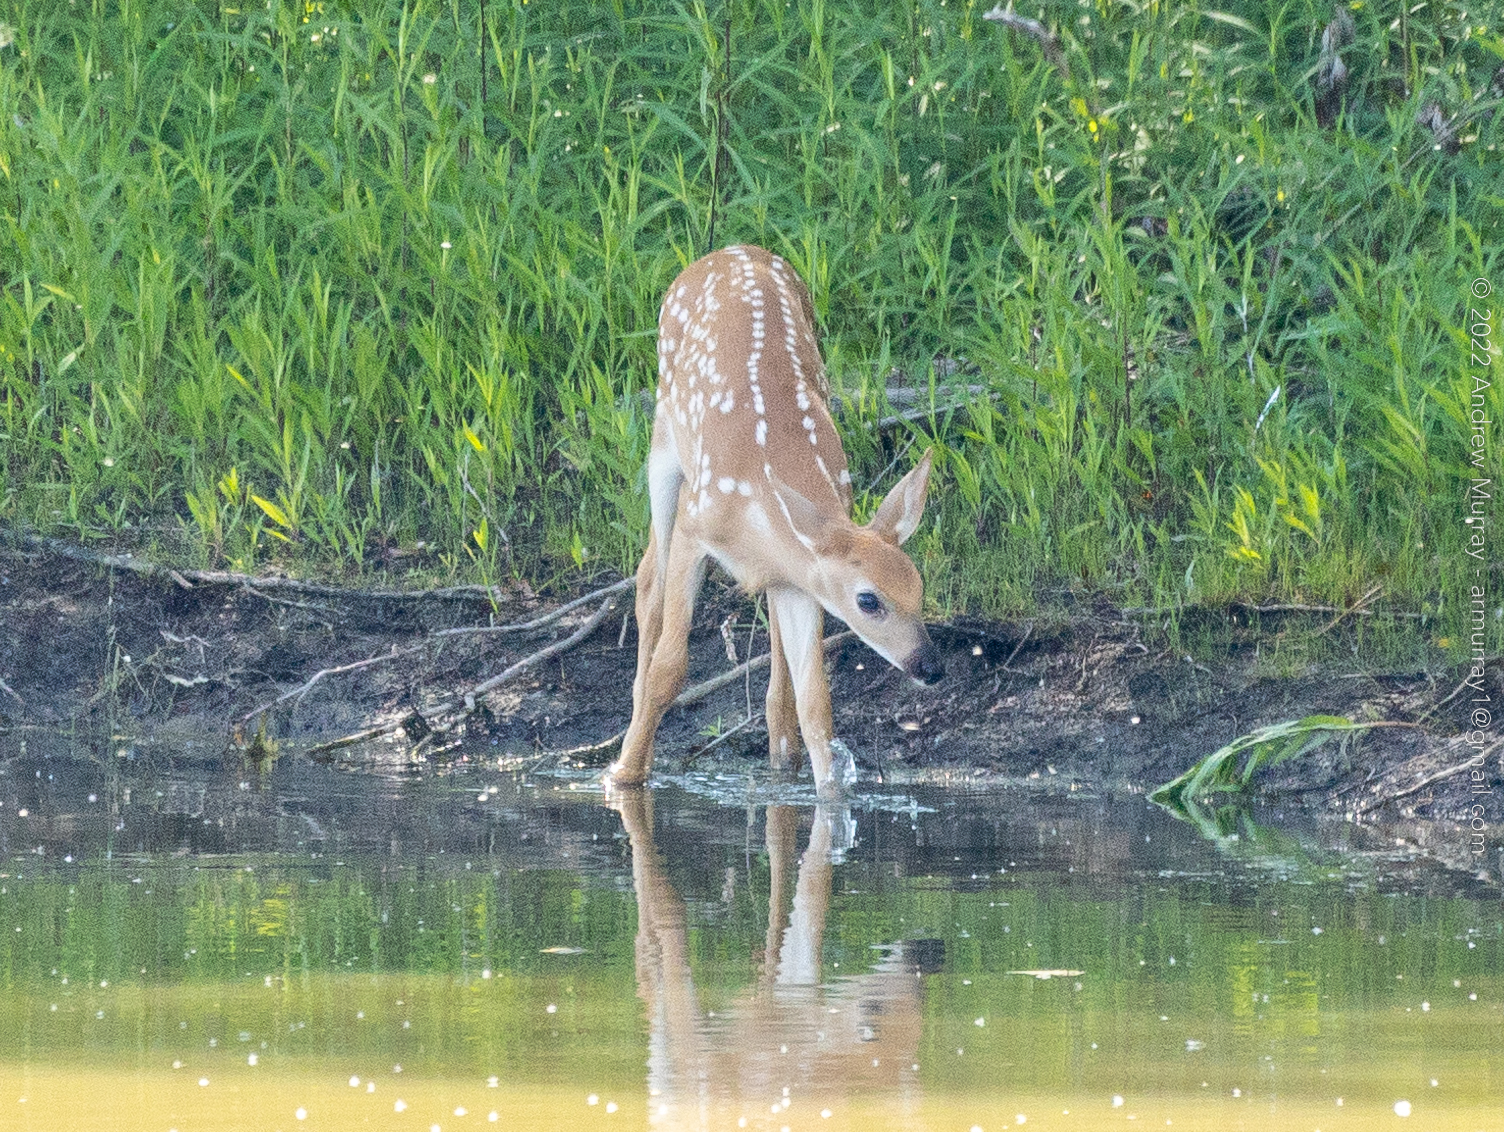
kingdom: Animalia
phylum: Chordata
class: Mammalia
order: Artiodactyla
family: Cervidae
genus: Odocoileus
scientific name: Odocoileus virginianus
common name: White-tailed deer
